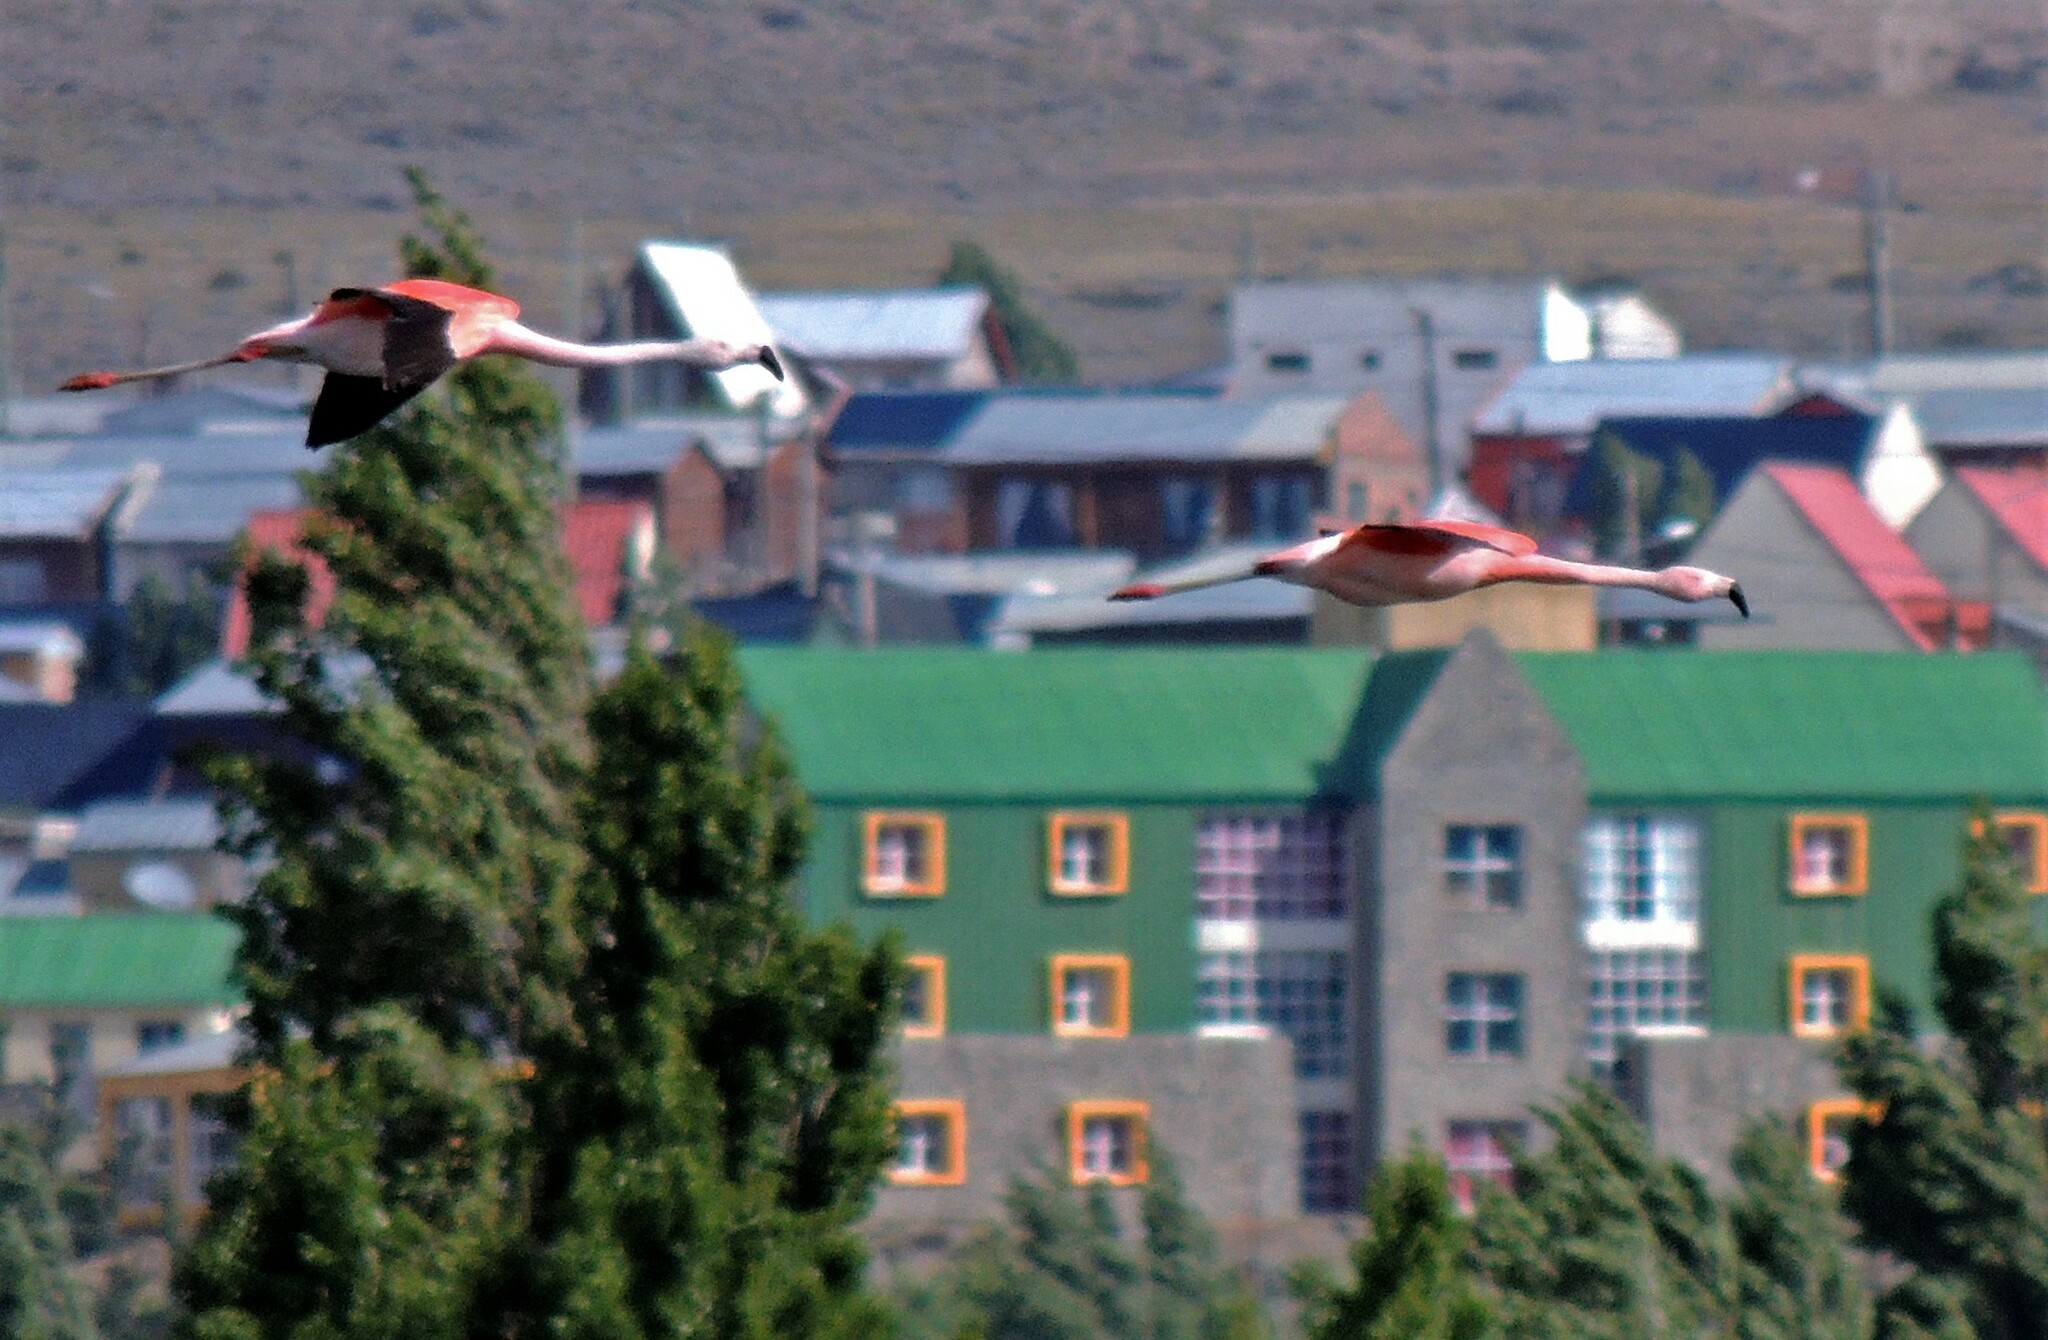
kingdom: Animalia
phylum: Chordata
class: Aves
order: Phoenicopteriformes
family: Phoenicopteridae
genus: Phoenicopterus
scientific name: Phoenicopterus chilensis
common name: Chilean flamingo
